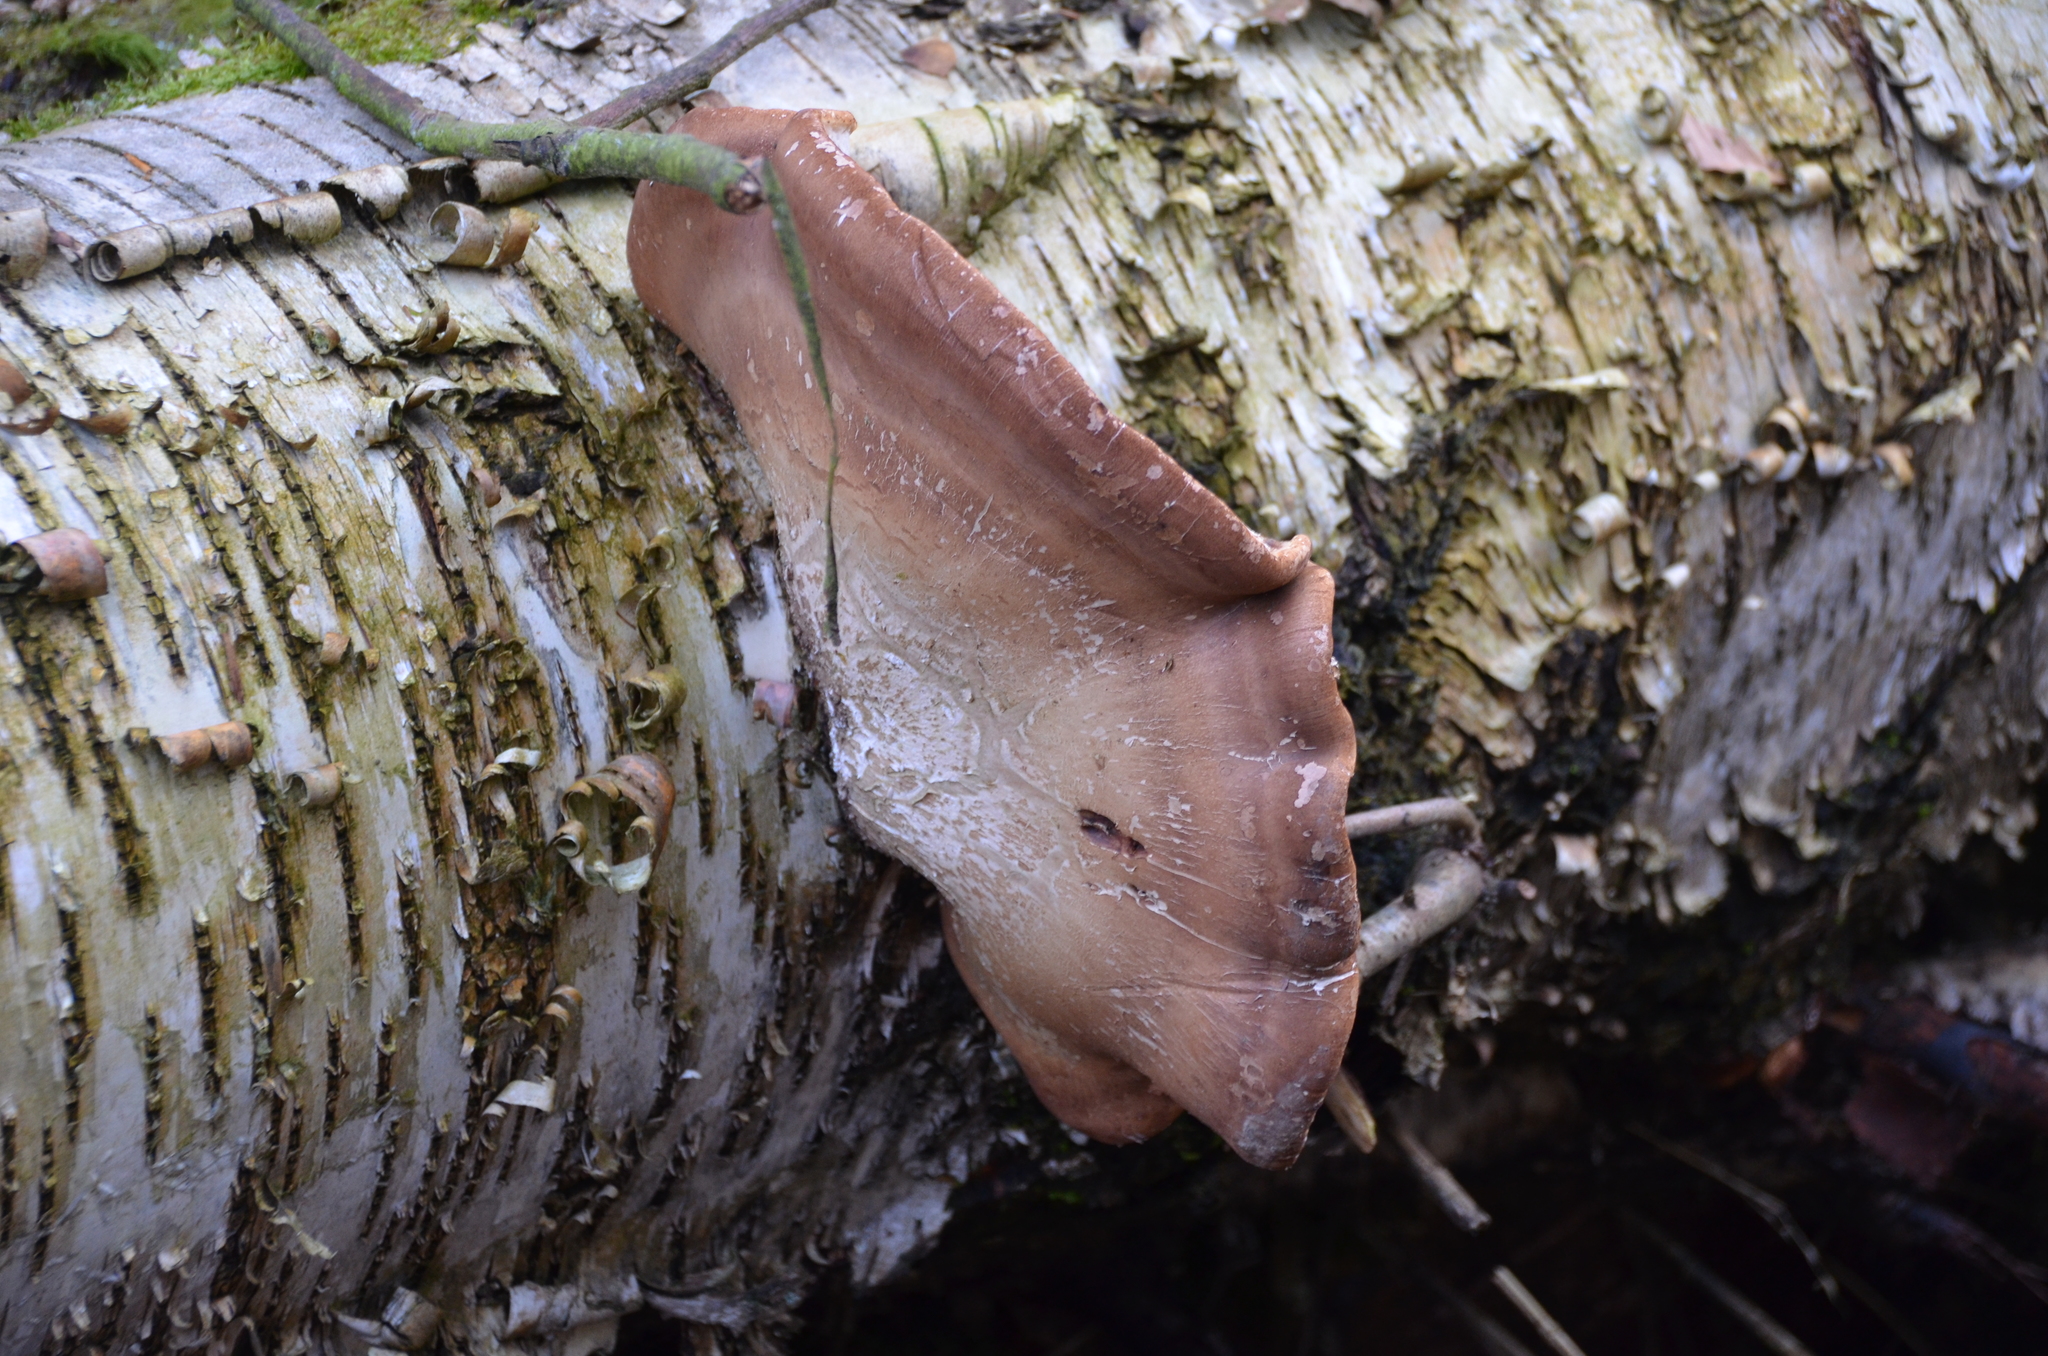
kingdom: Fungi
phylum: Basidiomycota
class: Agaricomycetes
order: Polyporales
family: Fomitopsidaceae
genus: Fomitopsis
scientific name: Fomitopsis betulina
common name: Birch polypore
